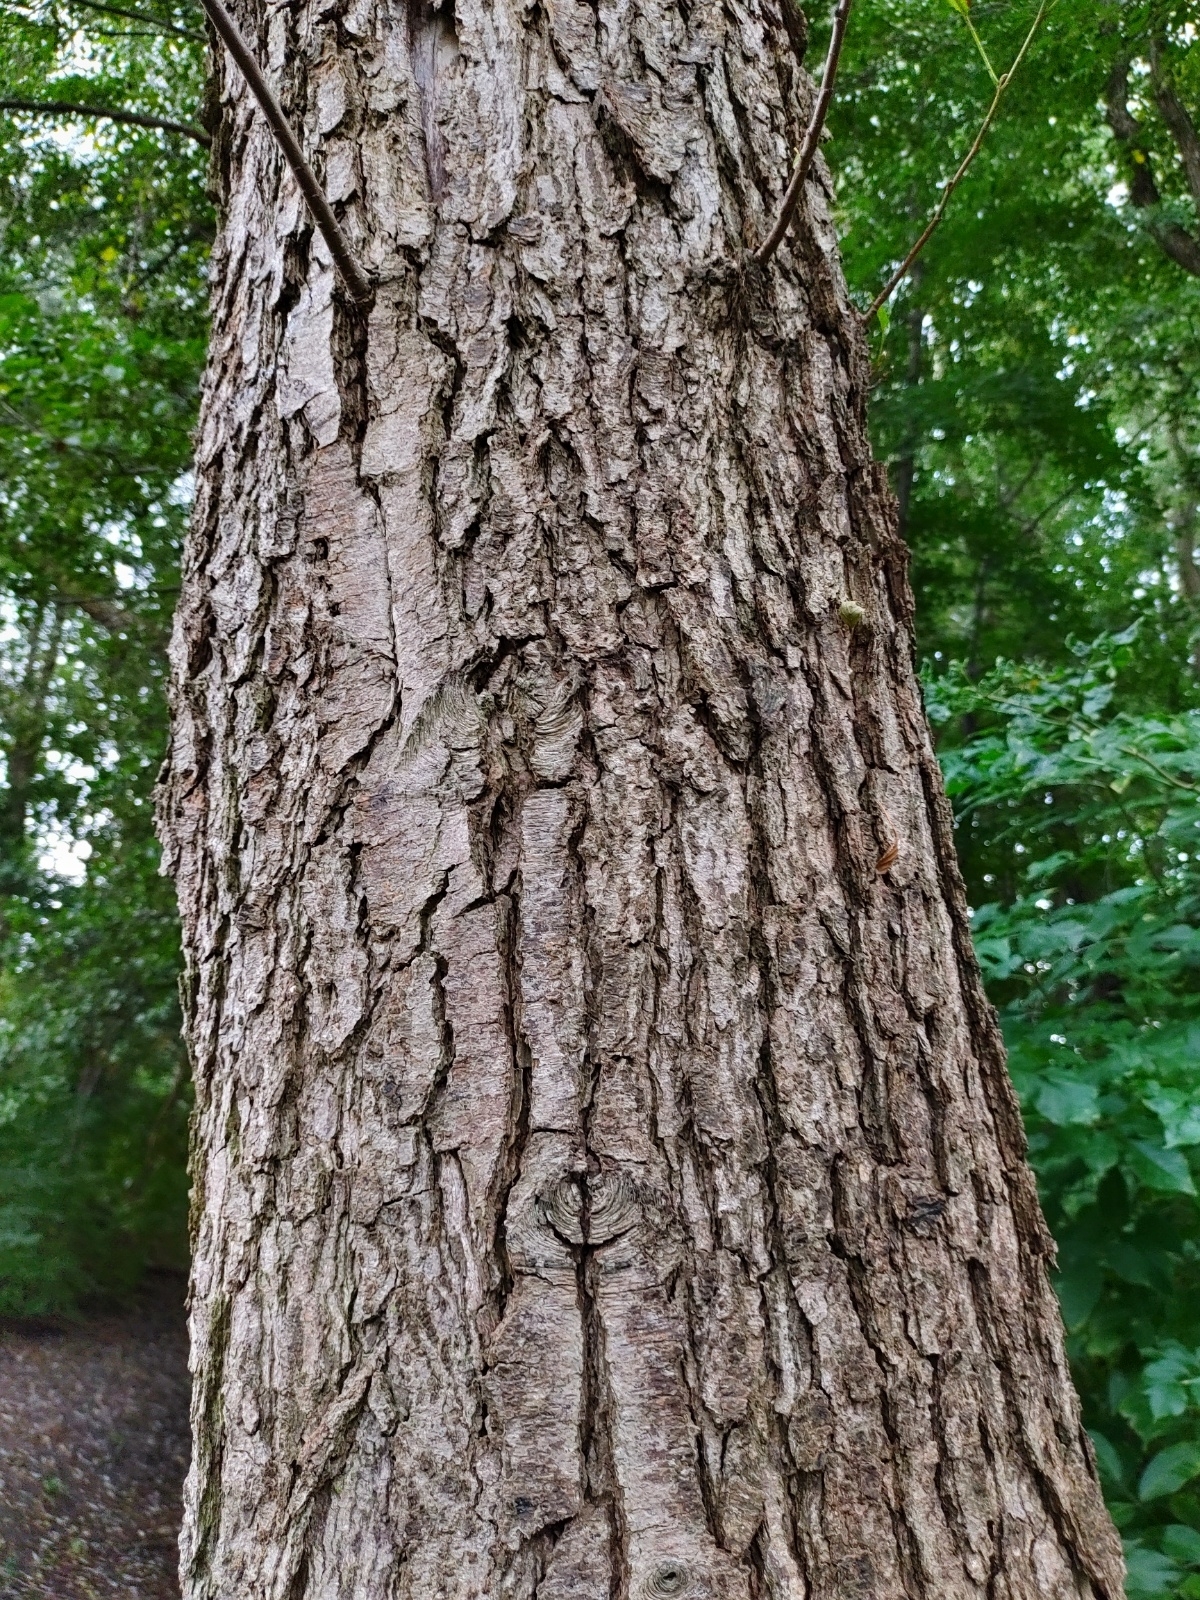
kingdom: Plantae
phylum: Tracheophyta
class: Magnoliopsida
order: Fagales
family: Betulaceae
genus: Alnus
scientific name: Alnus glutinosa
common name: Black alder
